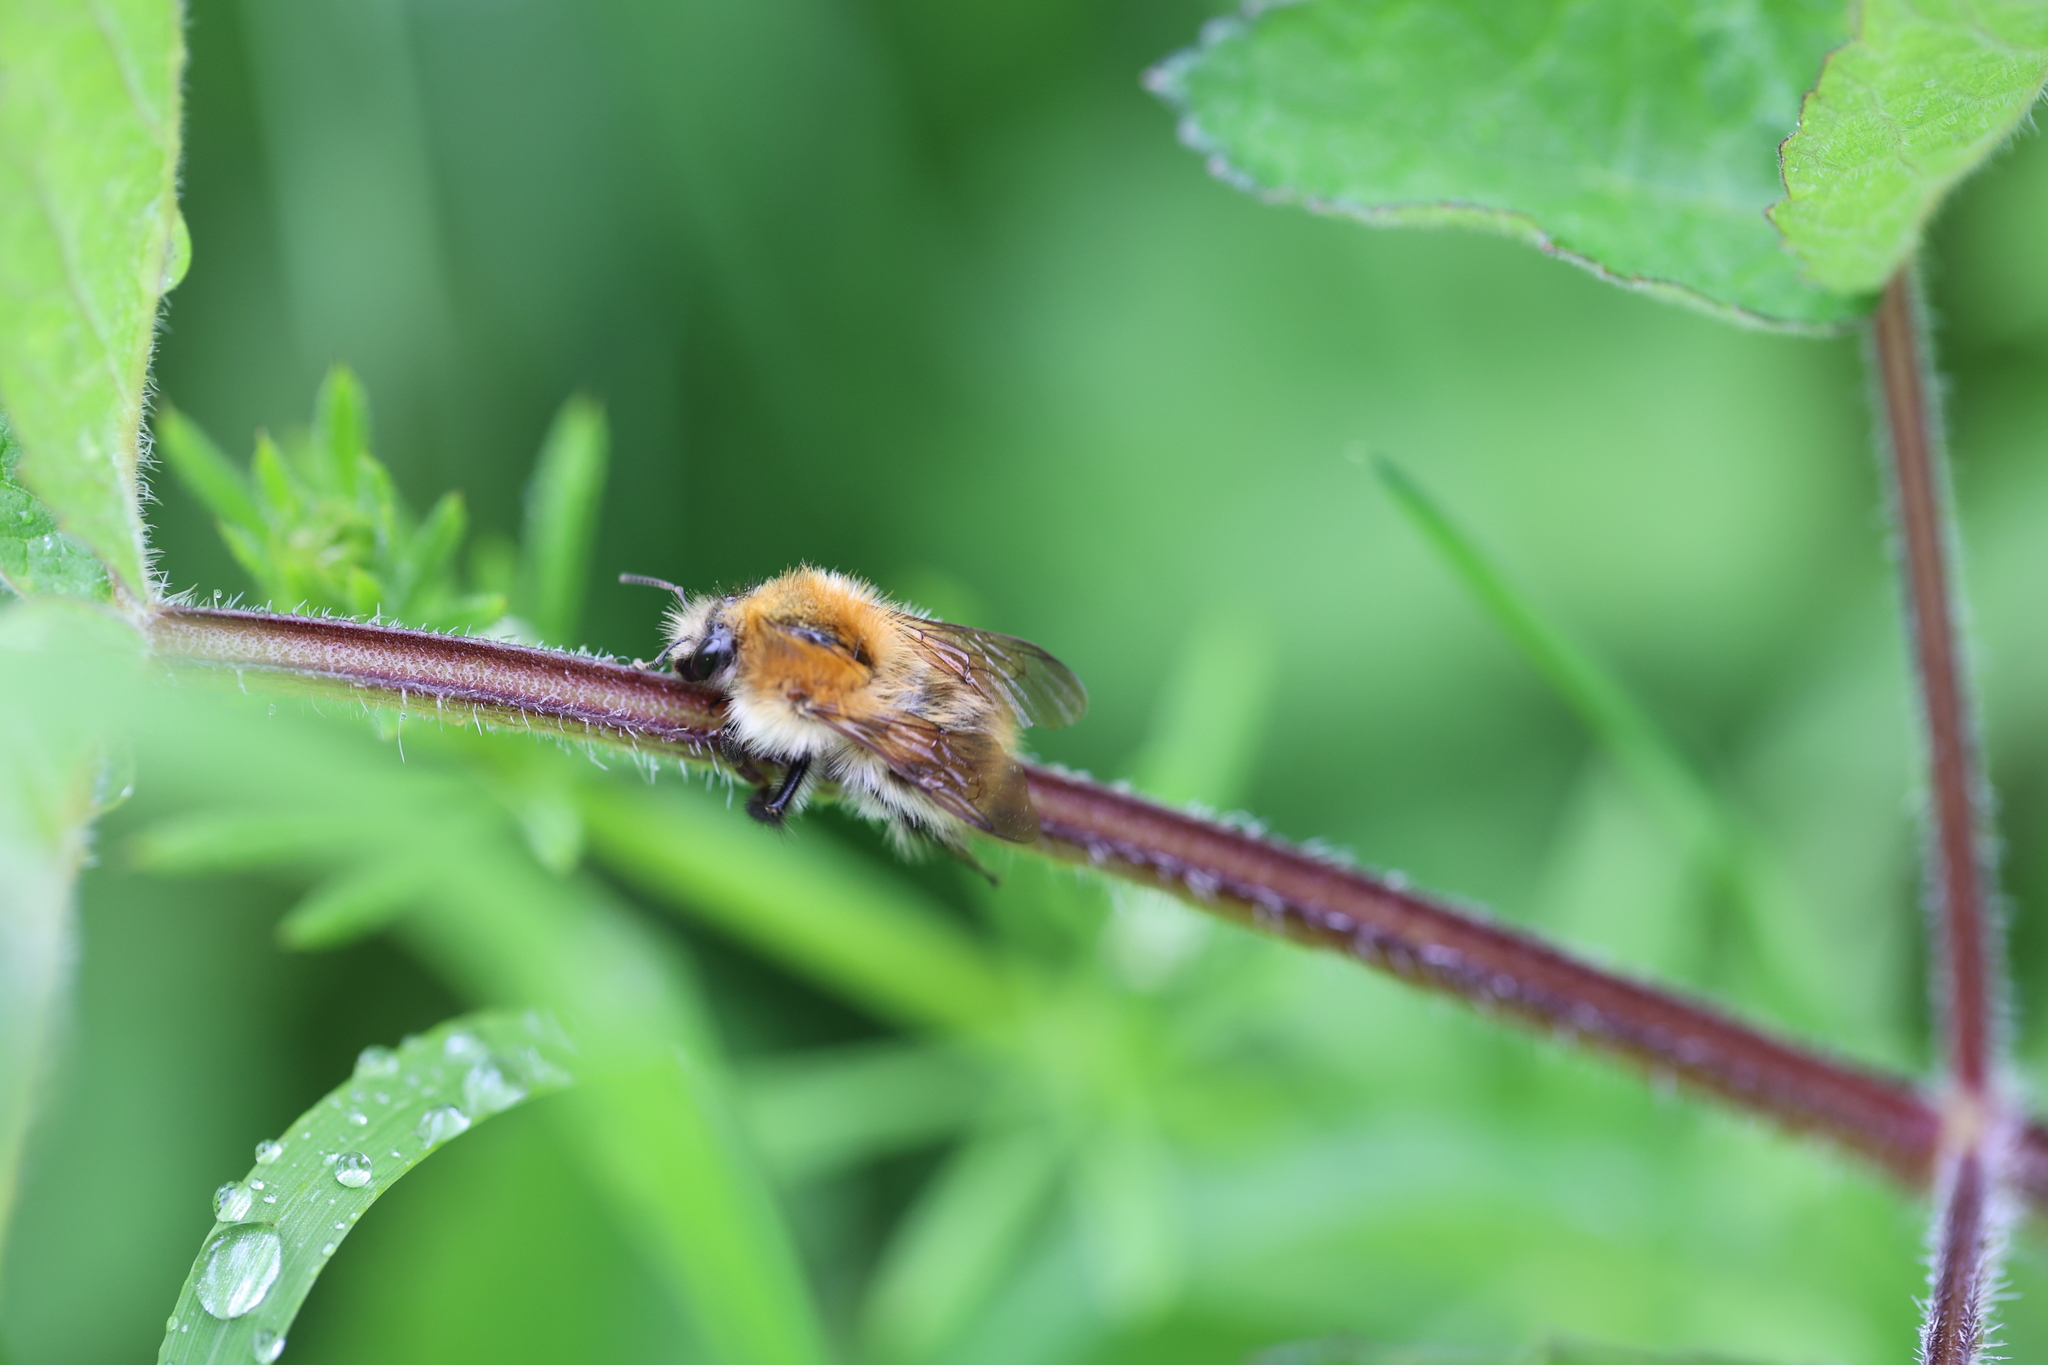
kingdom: Animalia
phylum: Arthropoda
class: Insecta
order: Hymenoptera
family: Apidae
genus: Bombus
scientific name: Bombus pascuorum
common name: Common carder bee
